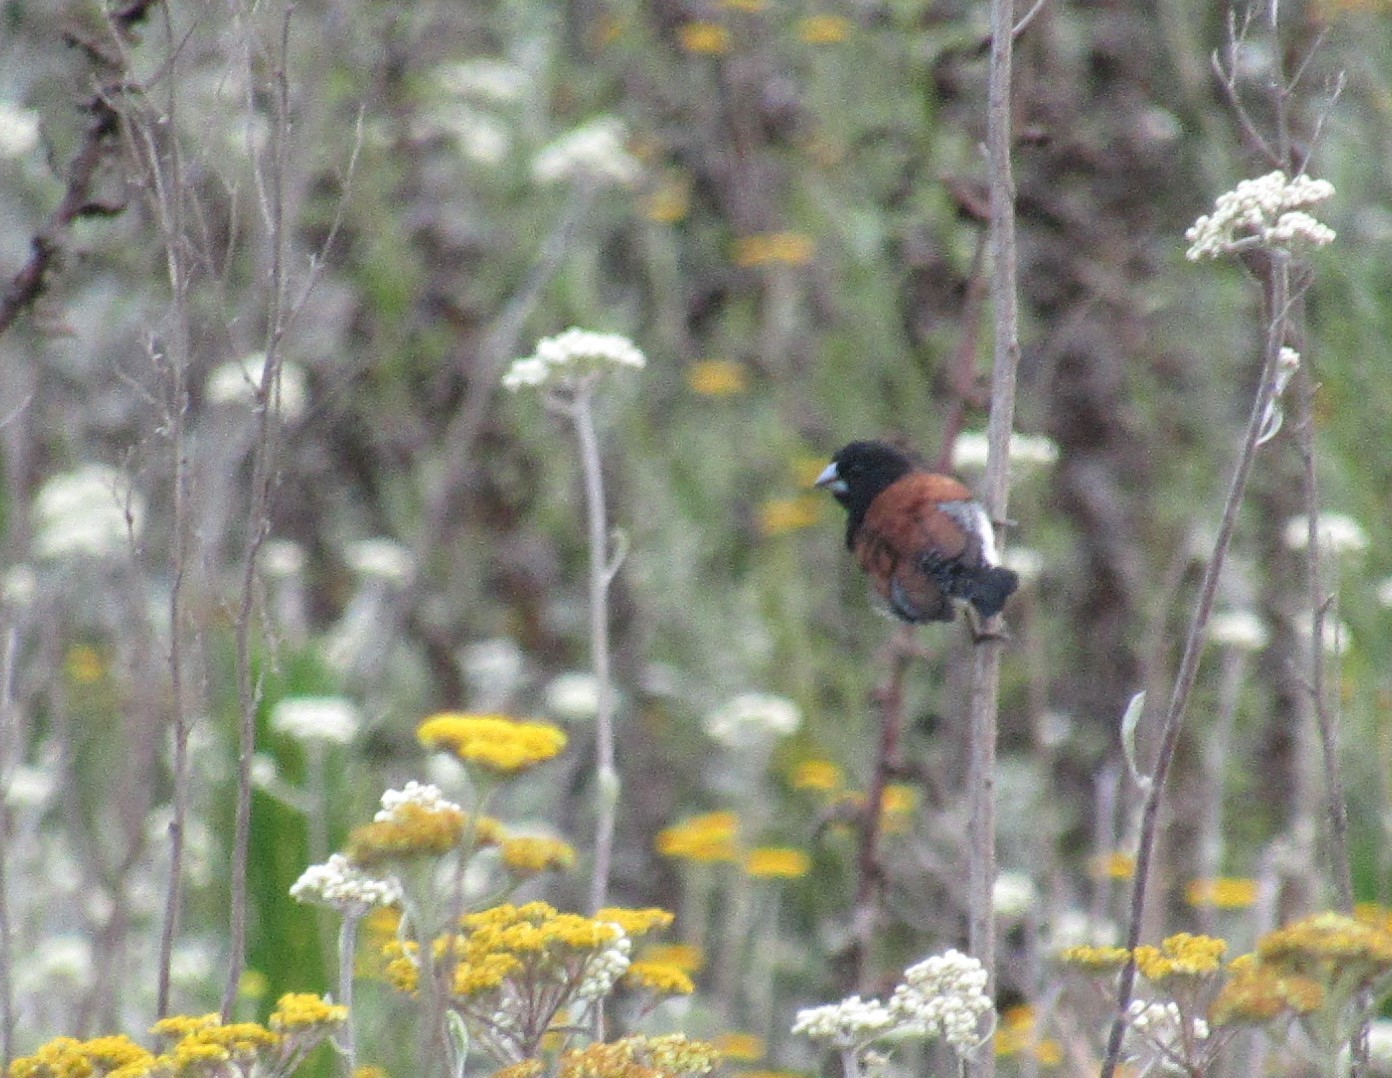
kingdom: Animalia
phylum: Chordata
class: Aves
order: Passeriformes
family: Estrildidae
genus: Lonchura
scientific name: Lonchura nigriceps
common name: Red-backed mannikin
